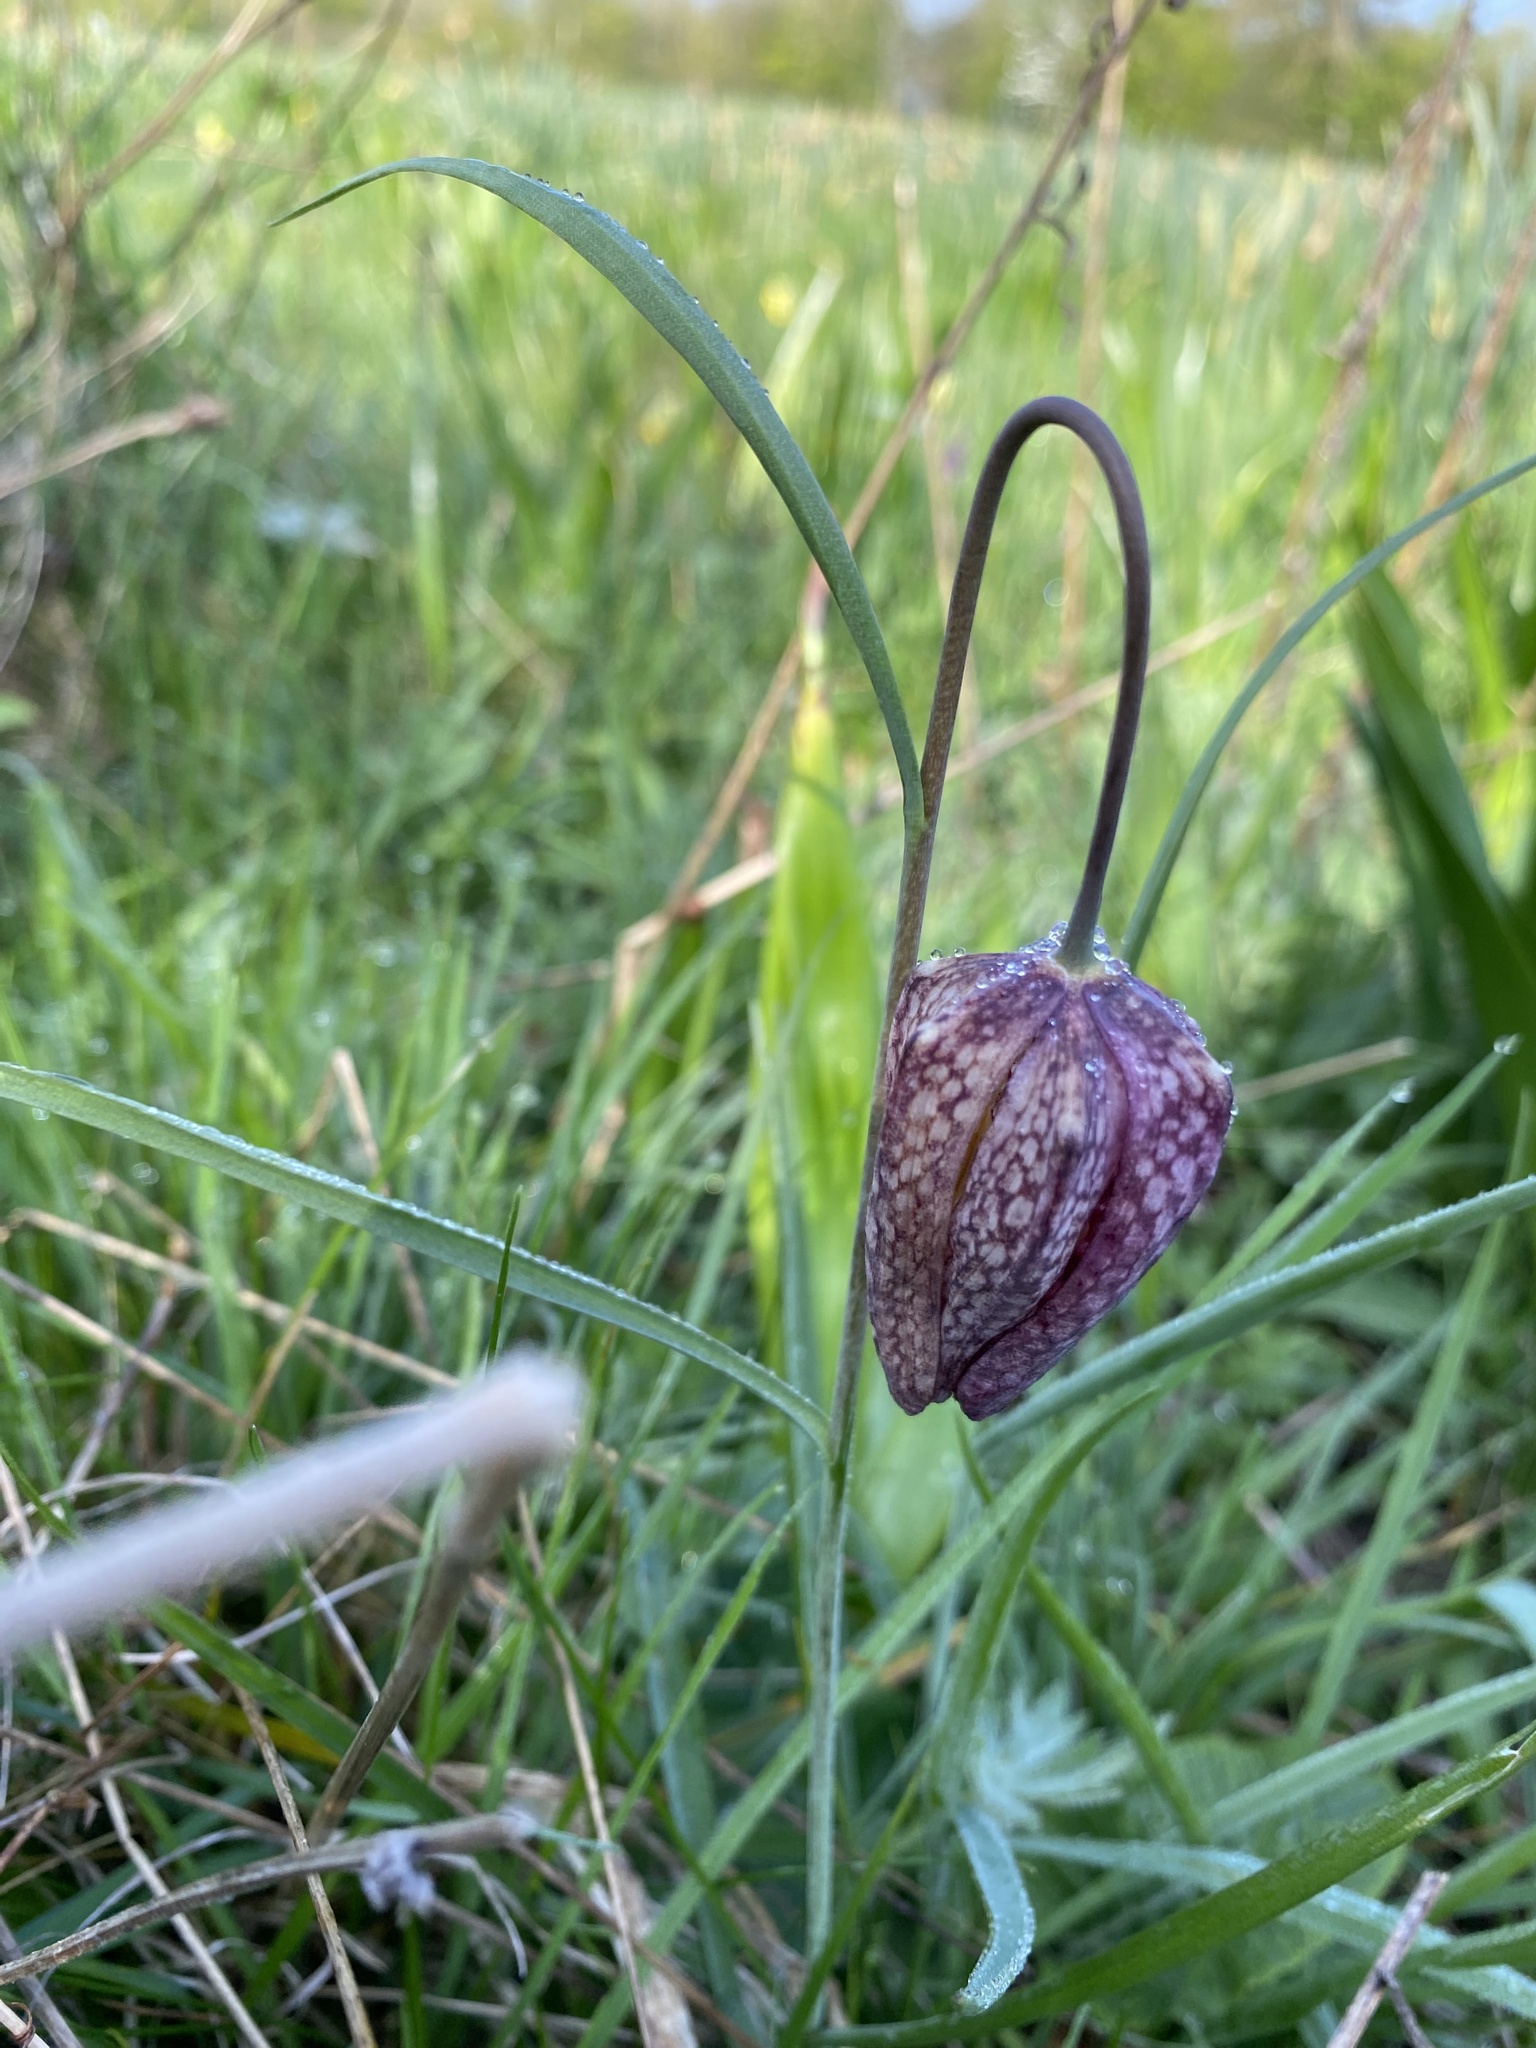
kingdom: Plantae
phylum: Tracheophyta
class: Liliopsida
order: Liliales
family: Liliaceae
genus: Fritillaria
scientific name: Fritillaria meleagris
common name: Fritillary
